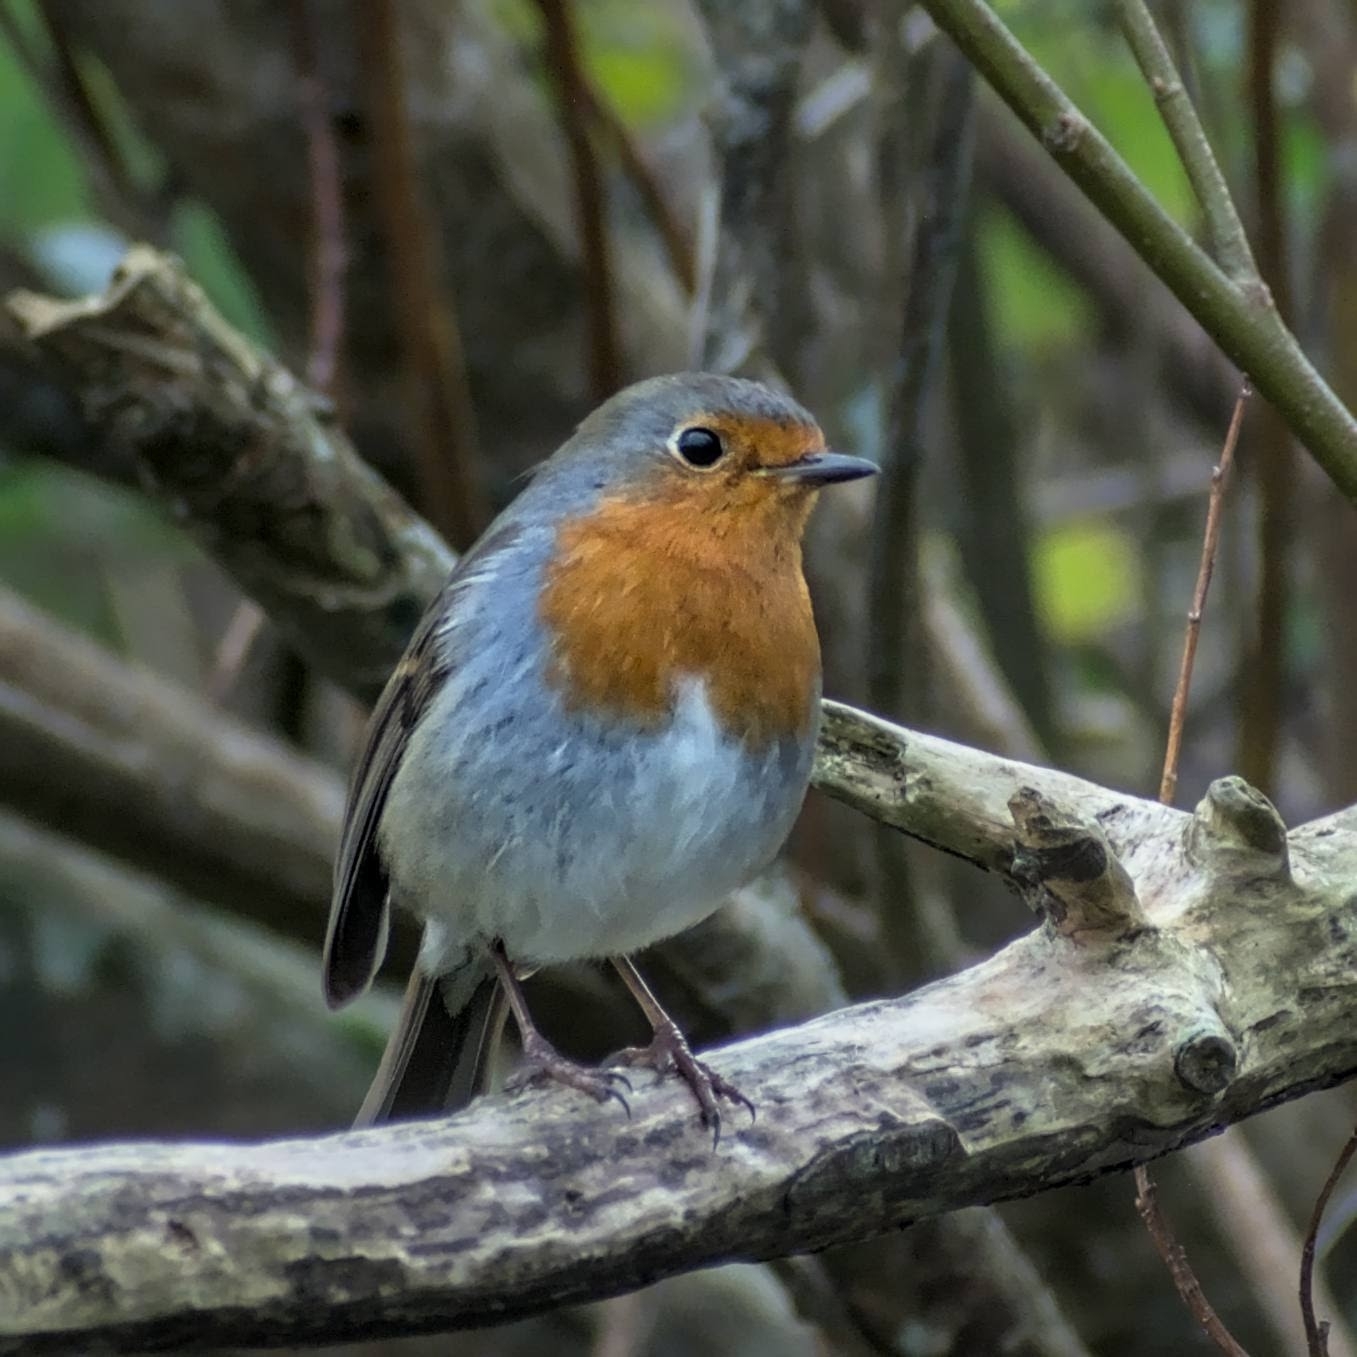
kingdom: Animalia
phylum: Chordata
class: Aves
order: Passeriformes
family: Muscicapidae
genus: Erithacus
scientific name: Erithacus rubecula
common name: European robin
